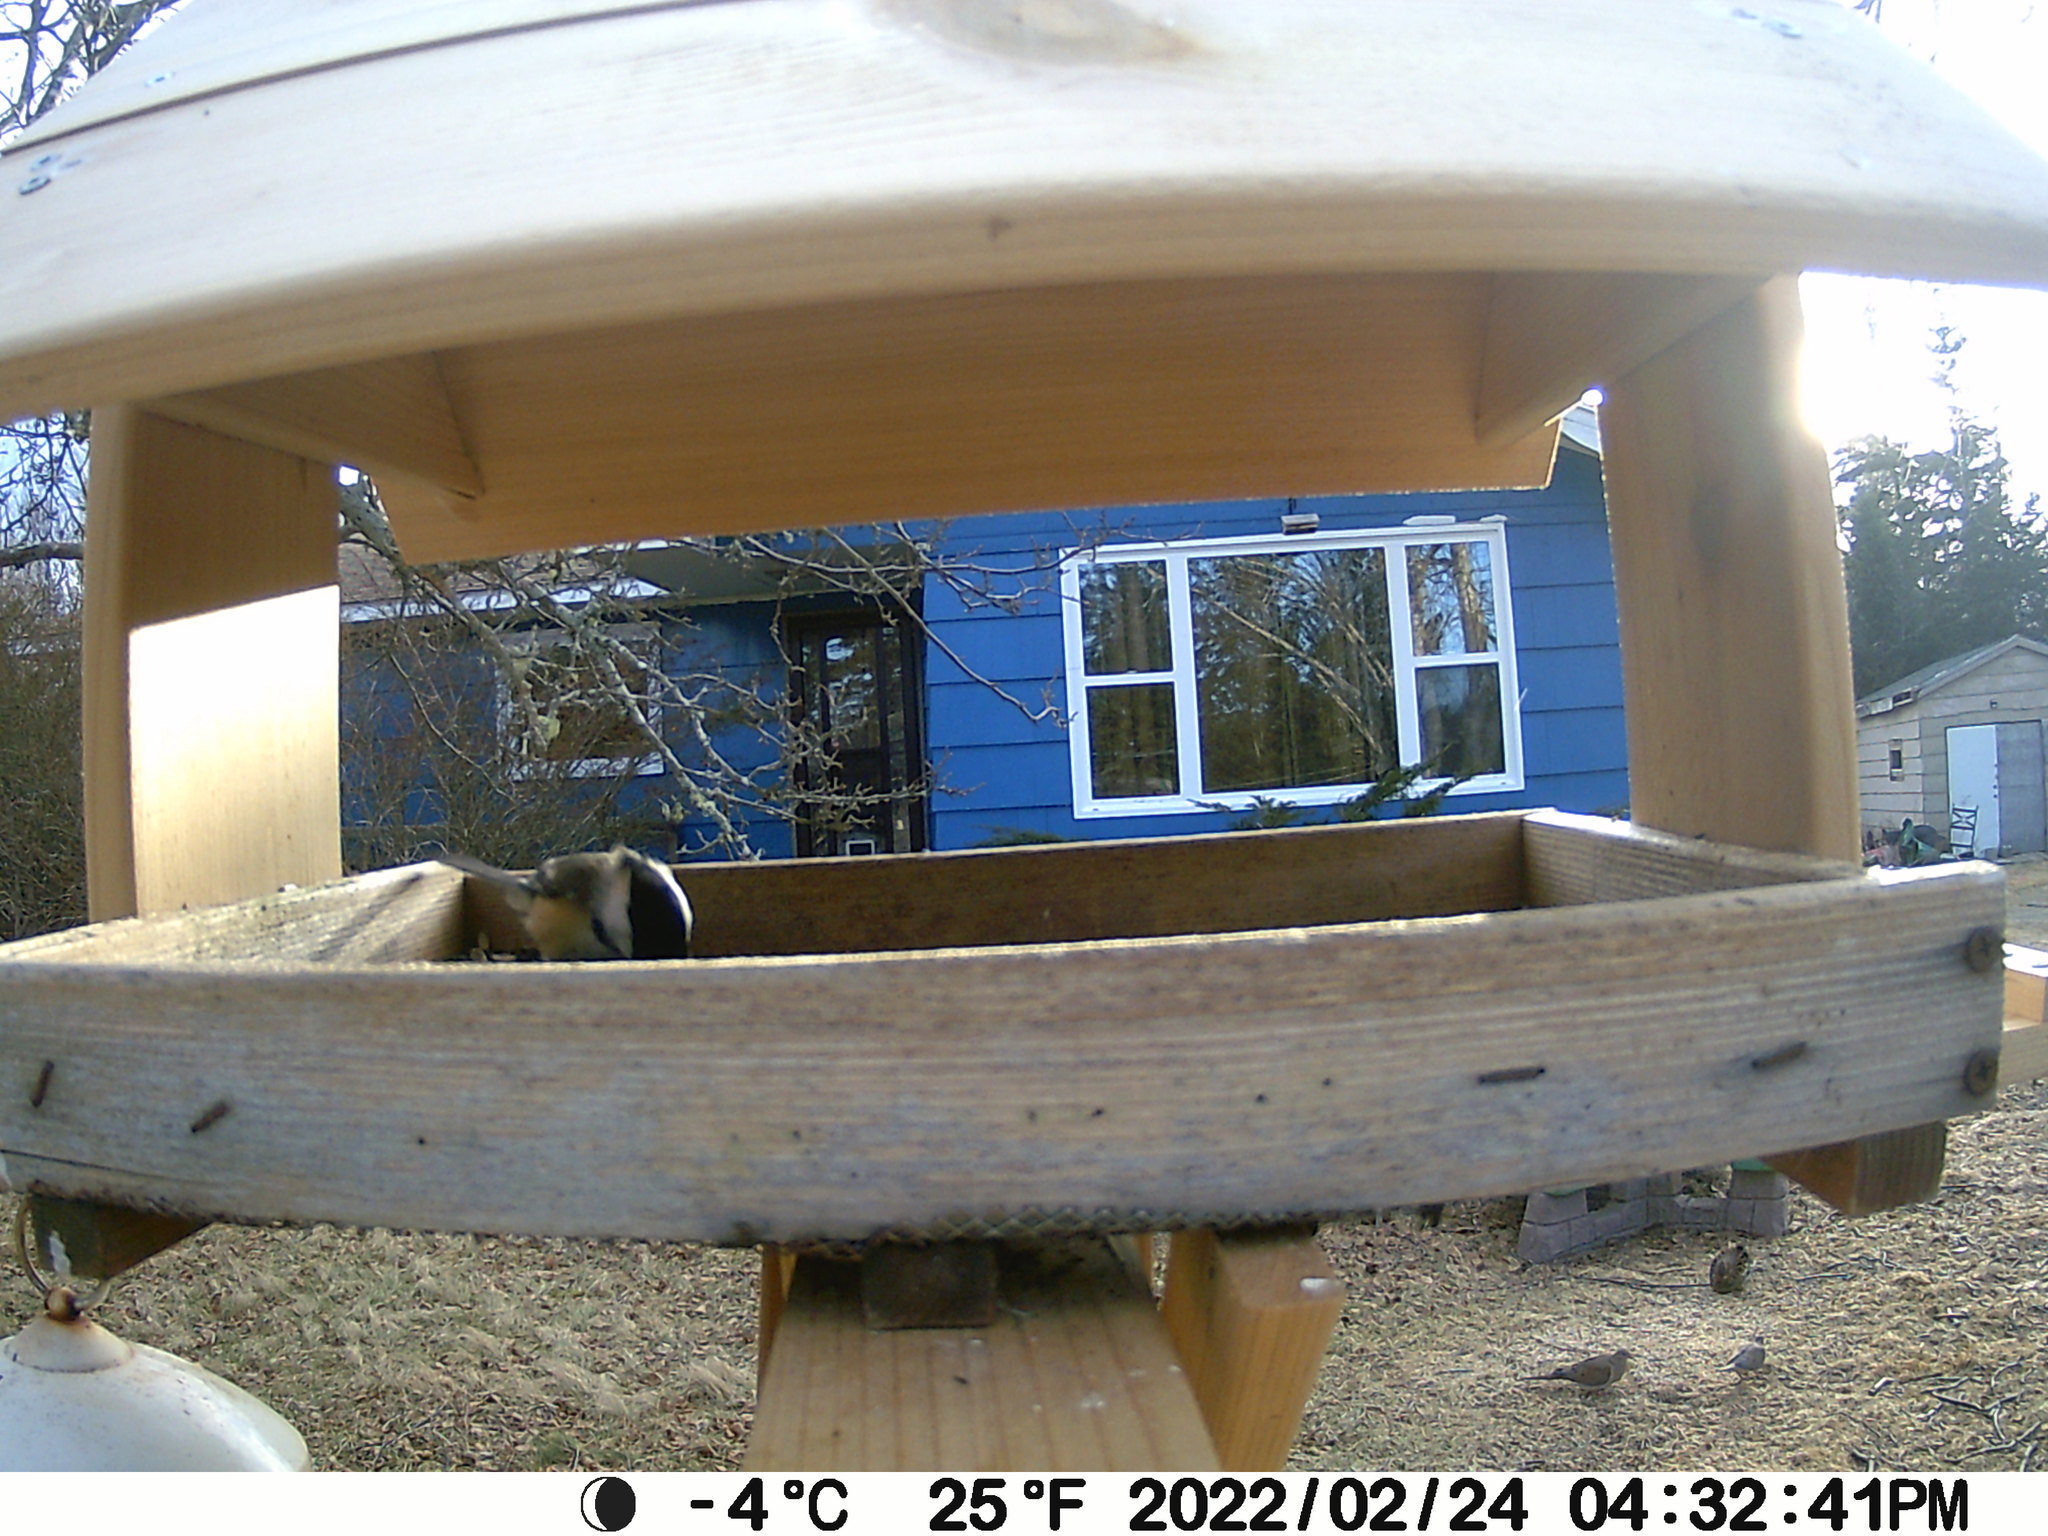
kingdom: Animalia
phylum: Chordata
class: Aves
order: Columbiformes
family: Columbidae
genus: Zenaida
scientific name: Zenaida macroura
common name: Mourning dove
